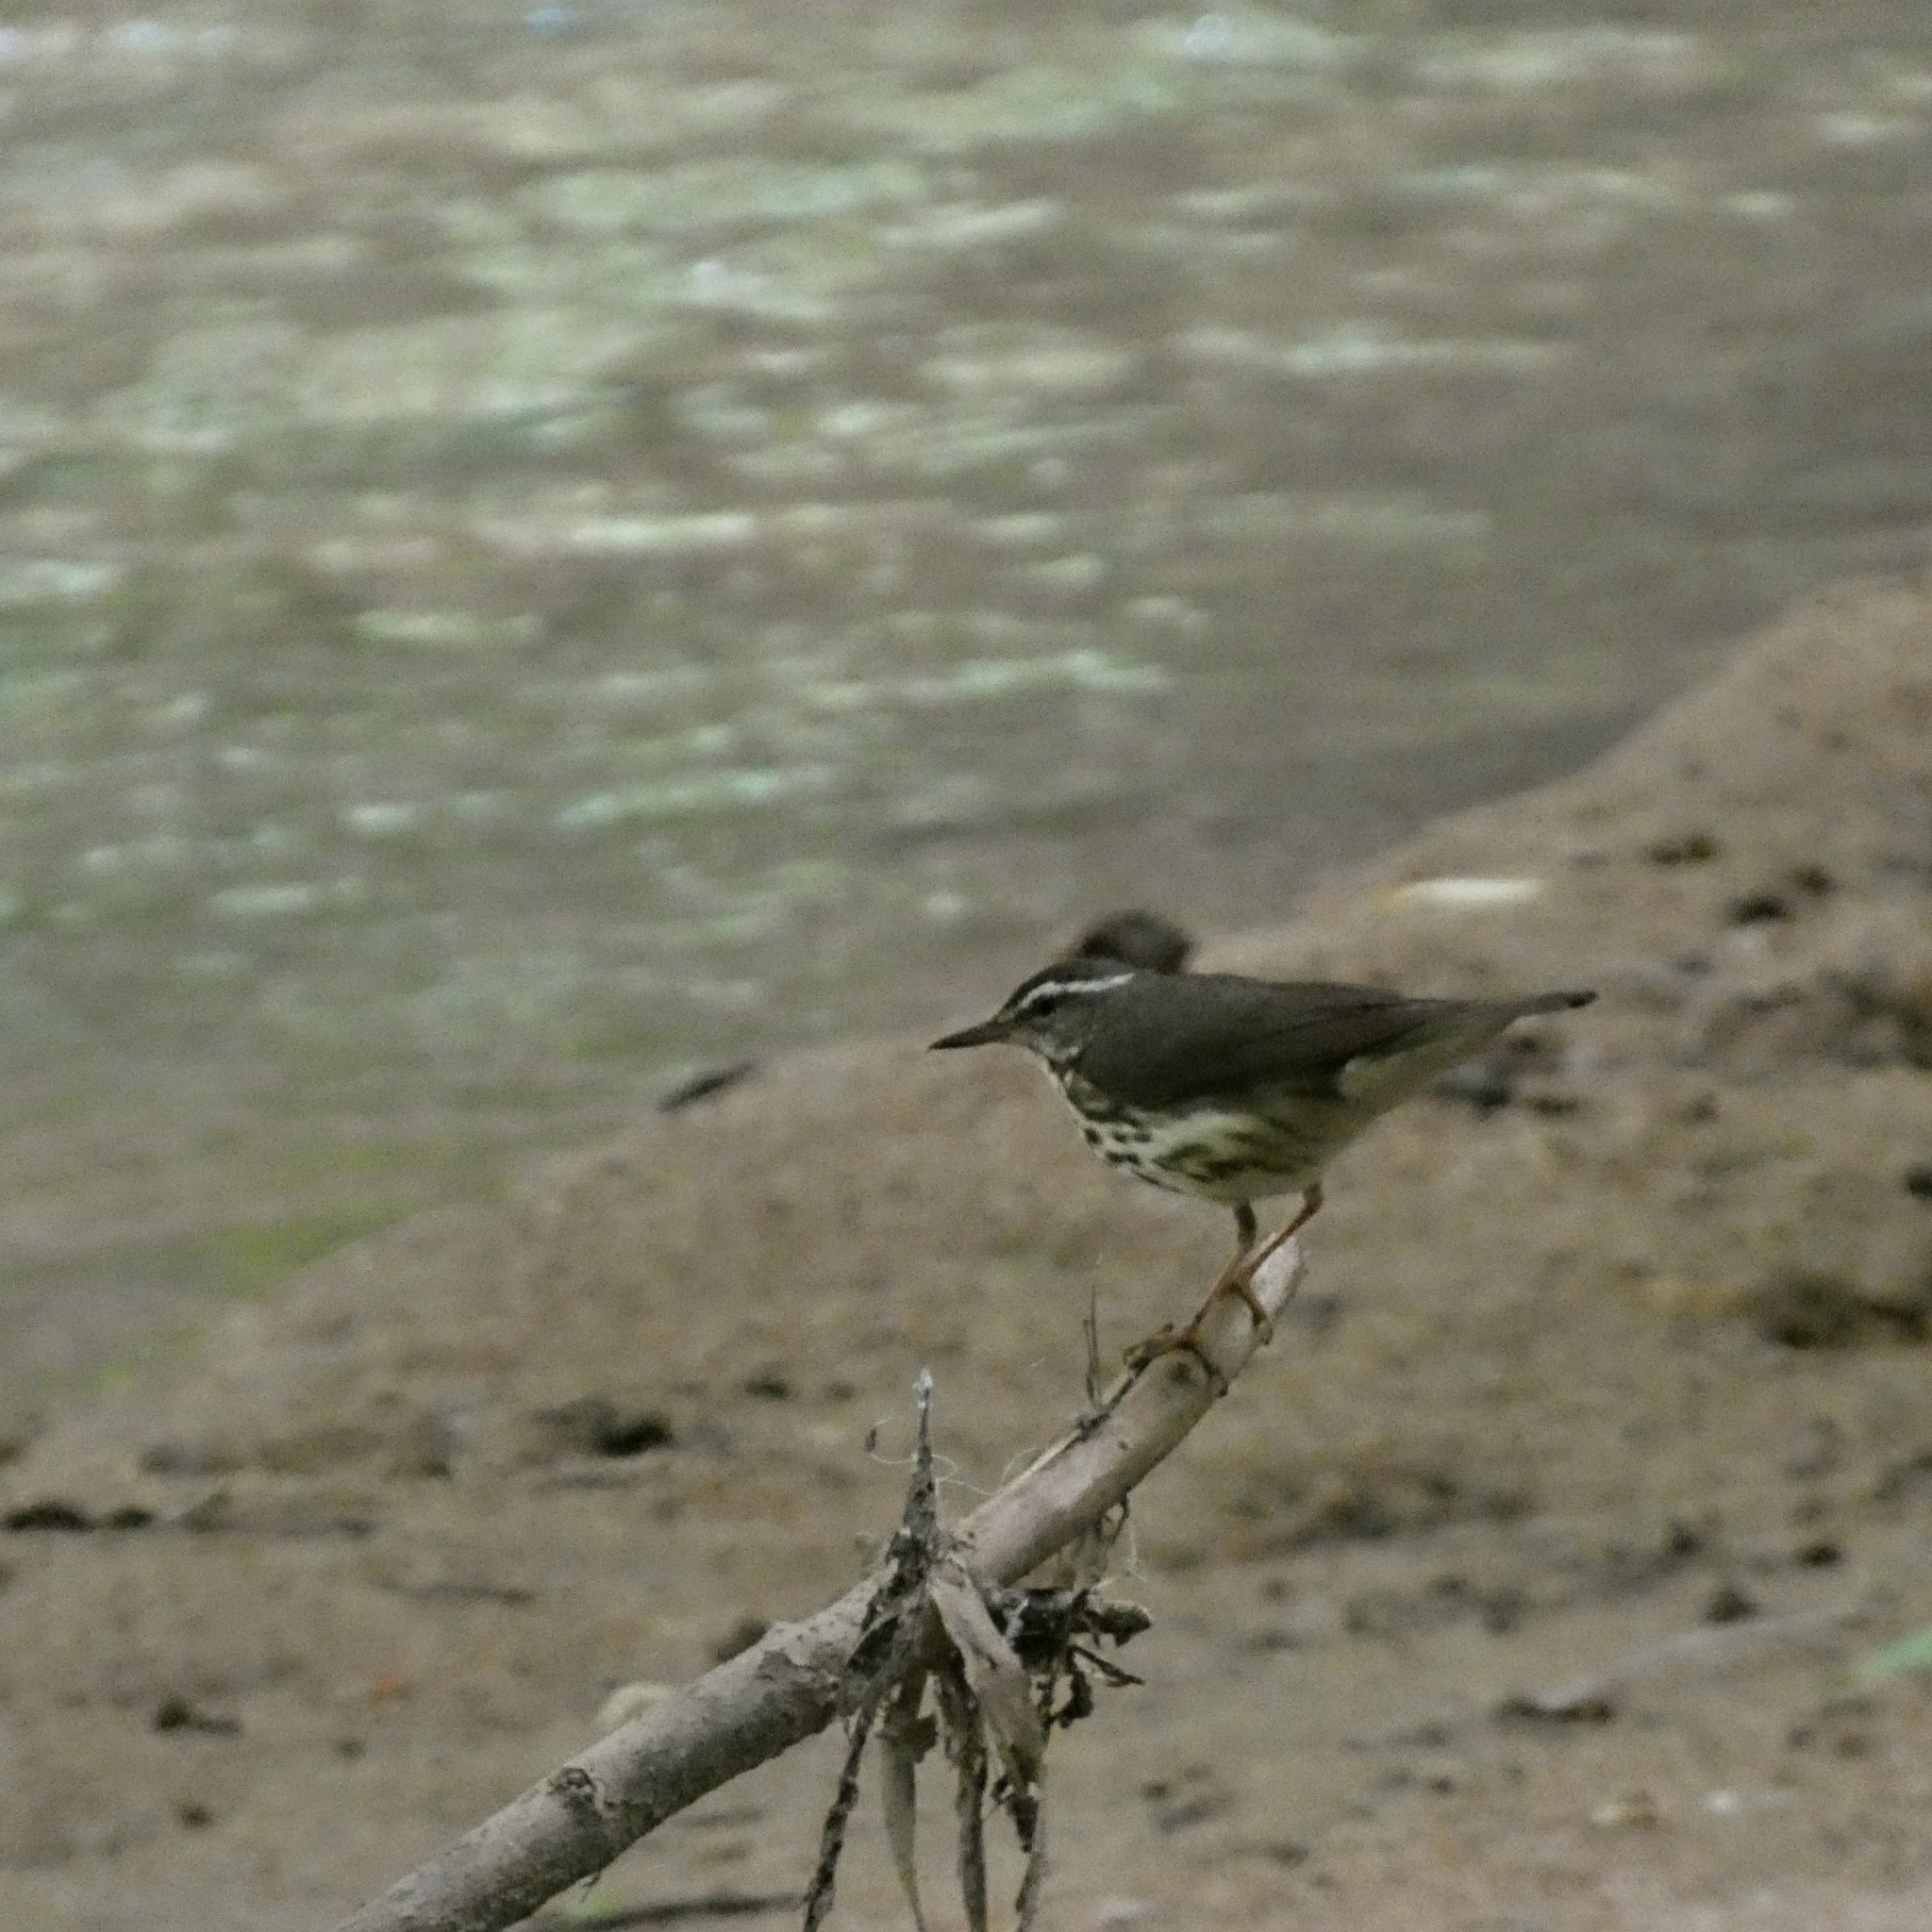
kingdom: Animalia
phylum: Chordata
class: Aves
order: Passeriformes
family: Parulidae
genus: Parkesia
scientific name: Parkesia motacilla
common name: Louisiana waterthrush
